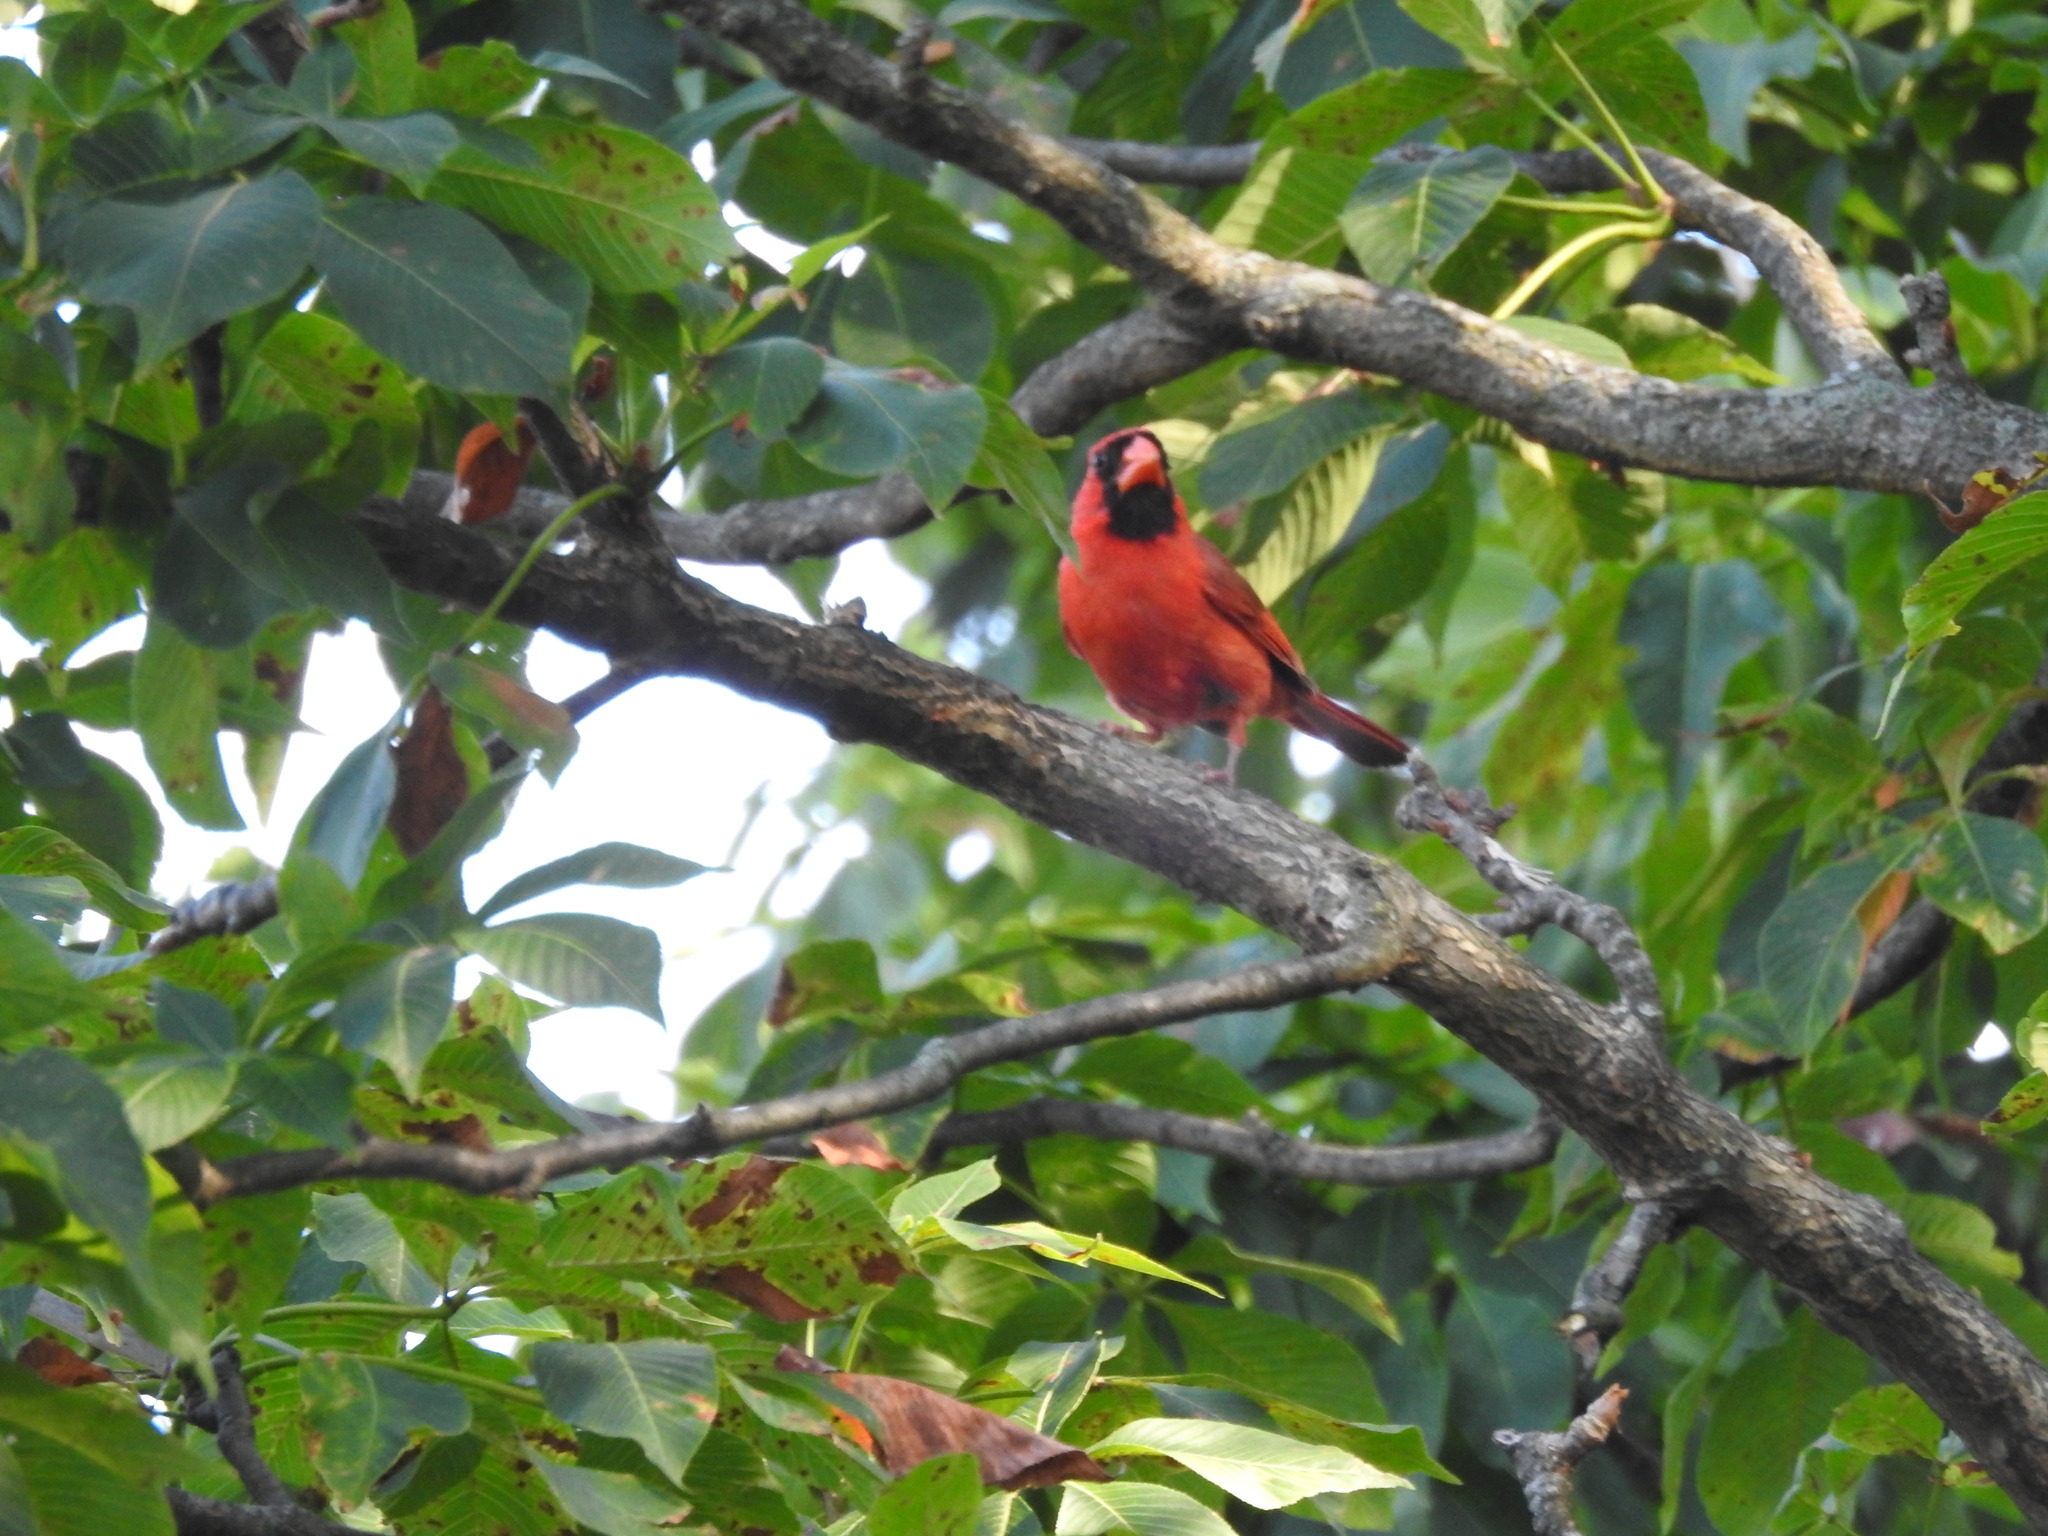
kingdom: Animalia
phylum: Chordata
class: Aves
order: Passeriformes
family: Cardinalidae
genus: Cardinalis
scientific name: Cardinalis cardinalis
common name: Northern cardinal
